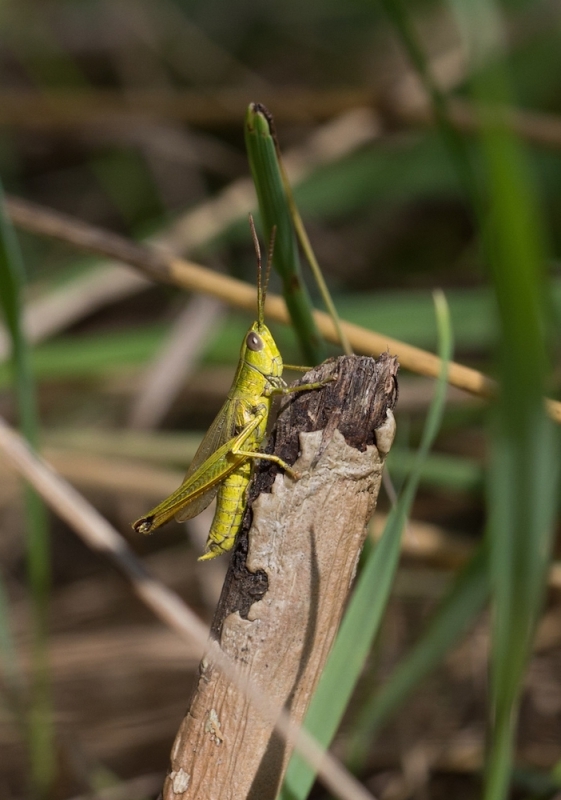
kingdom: Animalia
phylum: Arthropoda
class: Insecta
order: Orthoptera
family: Acrididae
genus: Chrysochraon
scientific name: Chrysochraon dispar
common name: Large gold grasshopper
